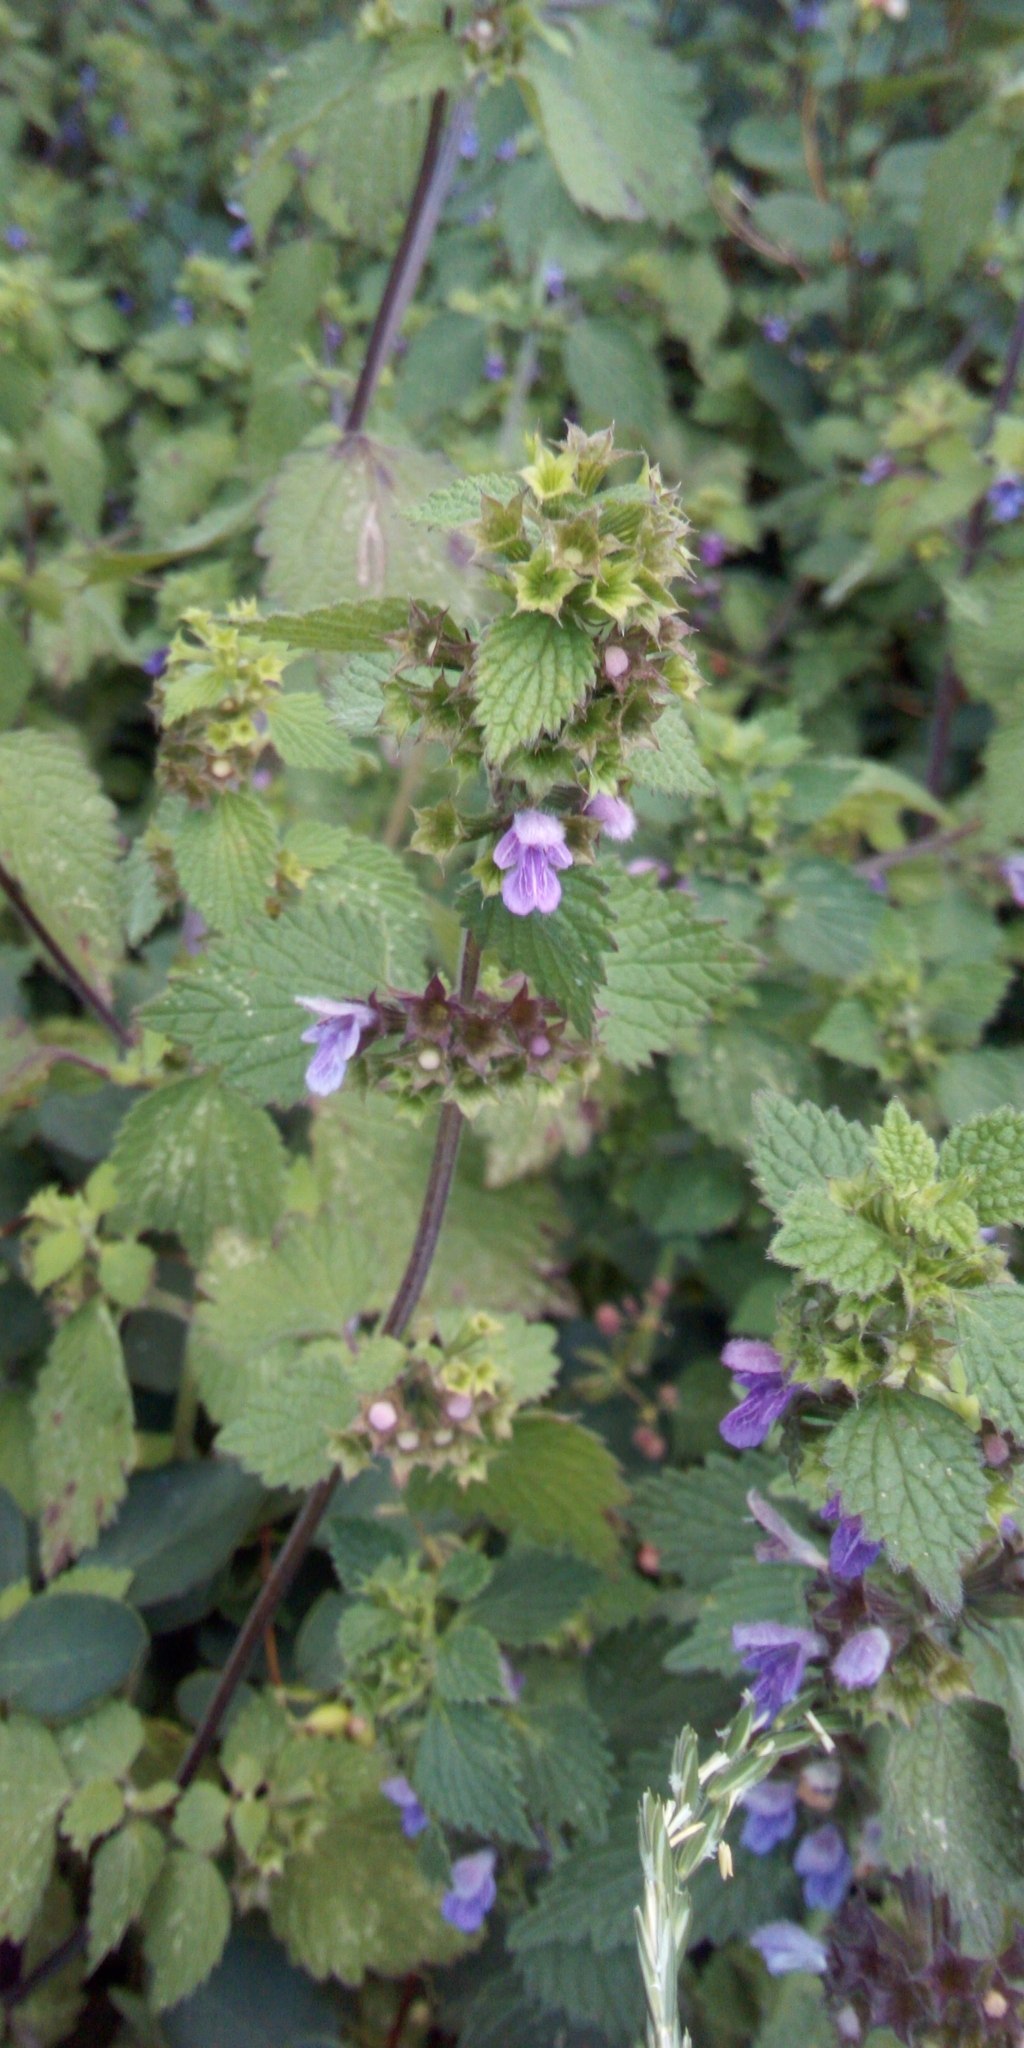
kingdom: Plantae
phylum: Tracheophyta
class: Magnoliopsida
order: Lamiales
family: Lamiaceae
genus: Ballota
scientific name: Ballota nigra
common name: Black horehound
